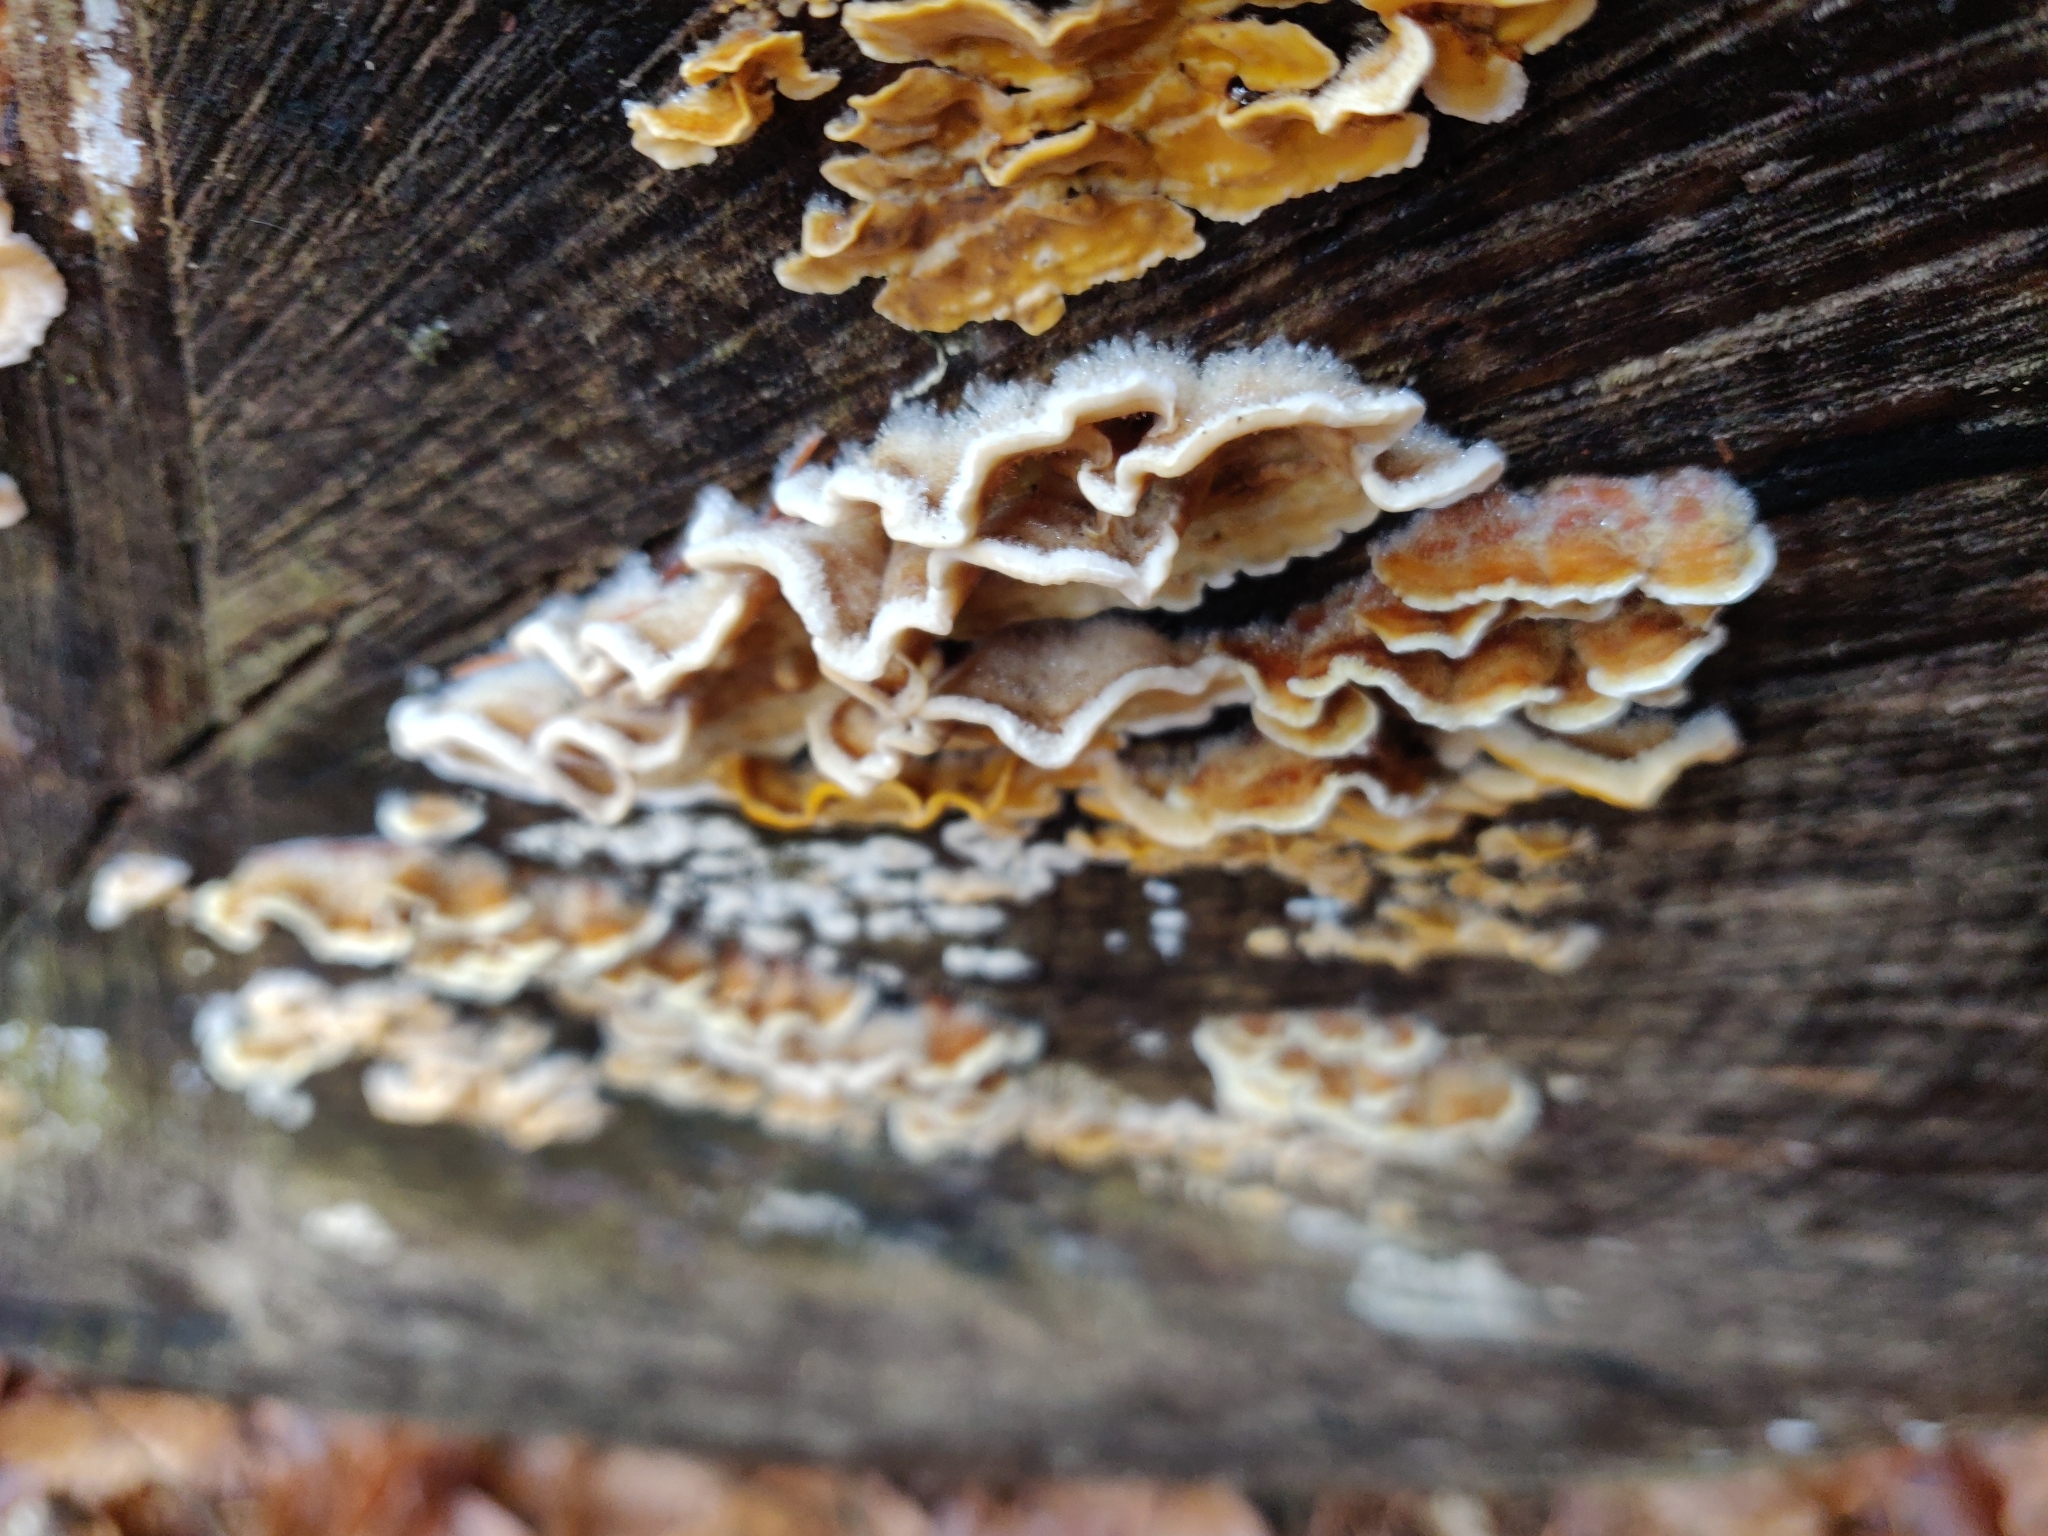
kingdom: Fungi
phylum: Basidiomycota
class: Agaricomycetes
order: Russulales
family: Stereaceae
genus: Stereum
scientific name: Stereum hirsutum
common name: Hairy curtain crust
